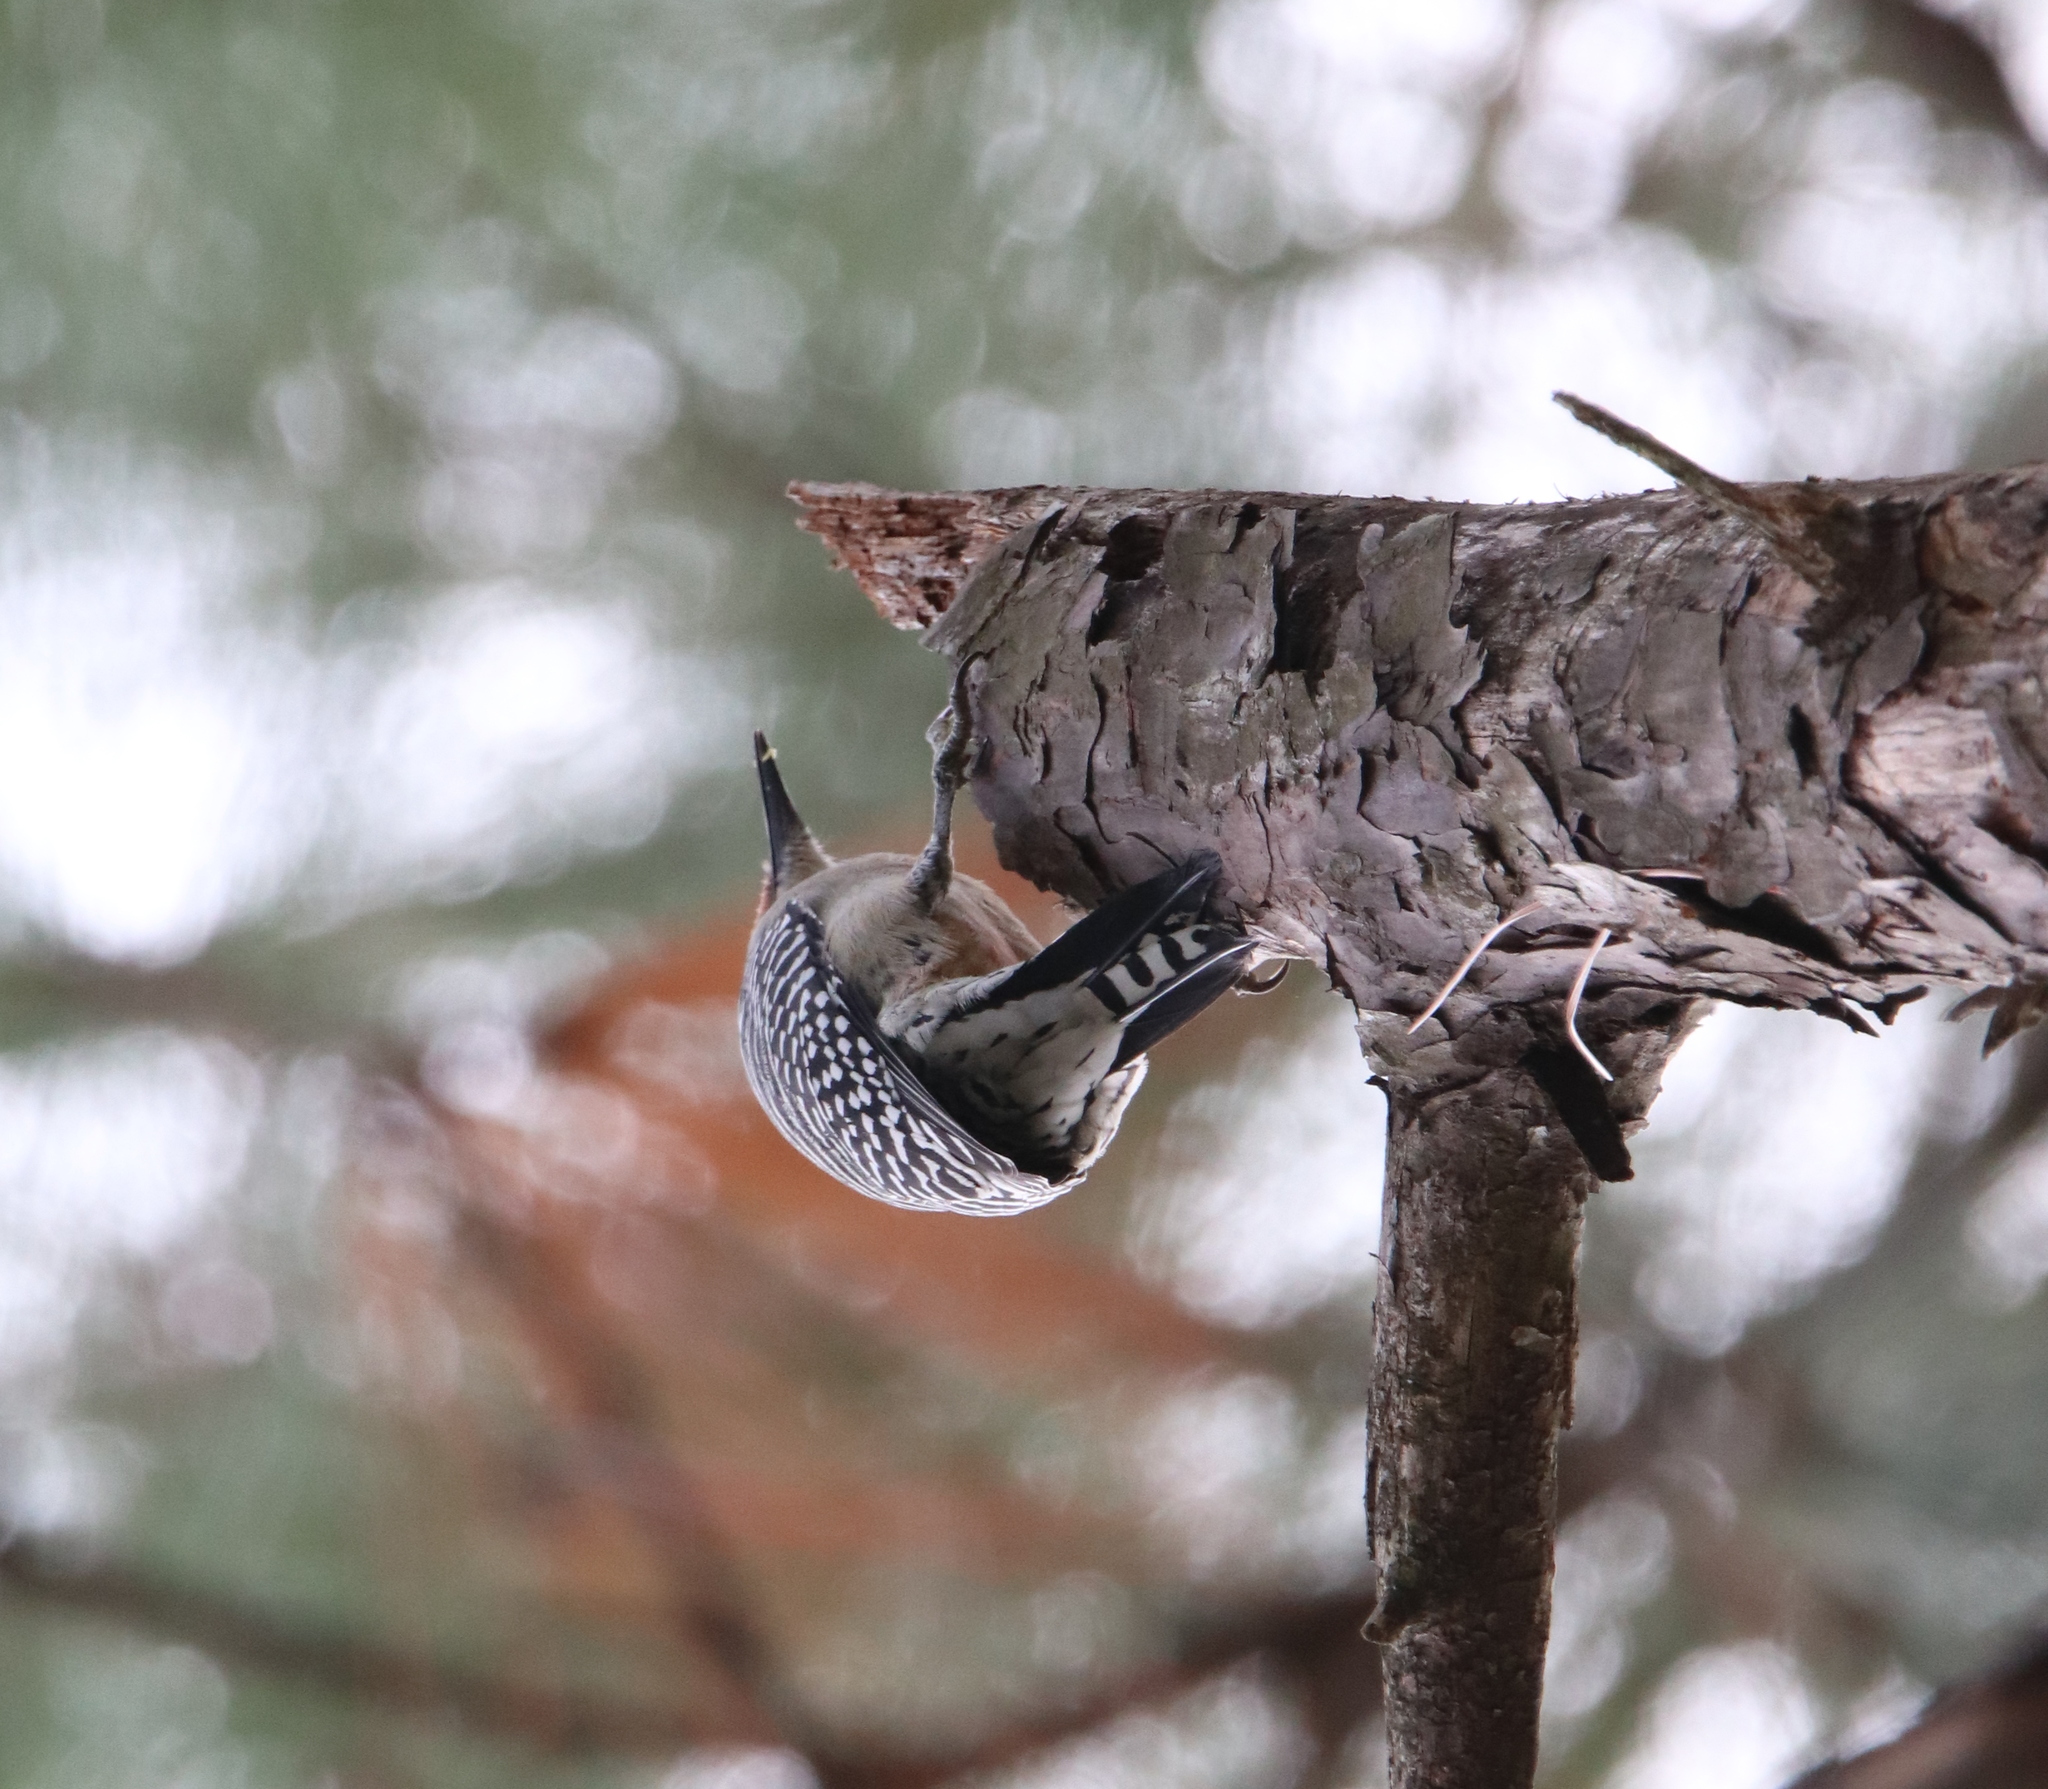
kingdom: Animalia
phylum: Chordata
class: Aves
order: Piciformes
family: Picidae
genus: Melanerpes
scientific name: Melanerpes carolinus
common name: Red-bellied woodpecker
